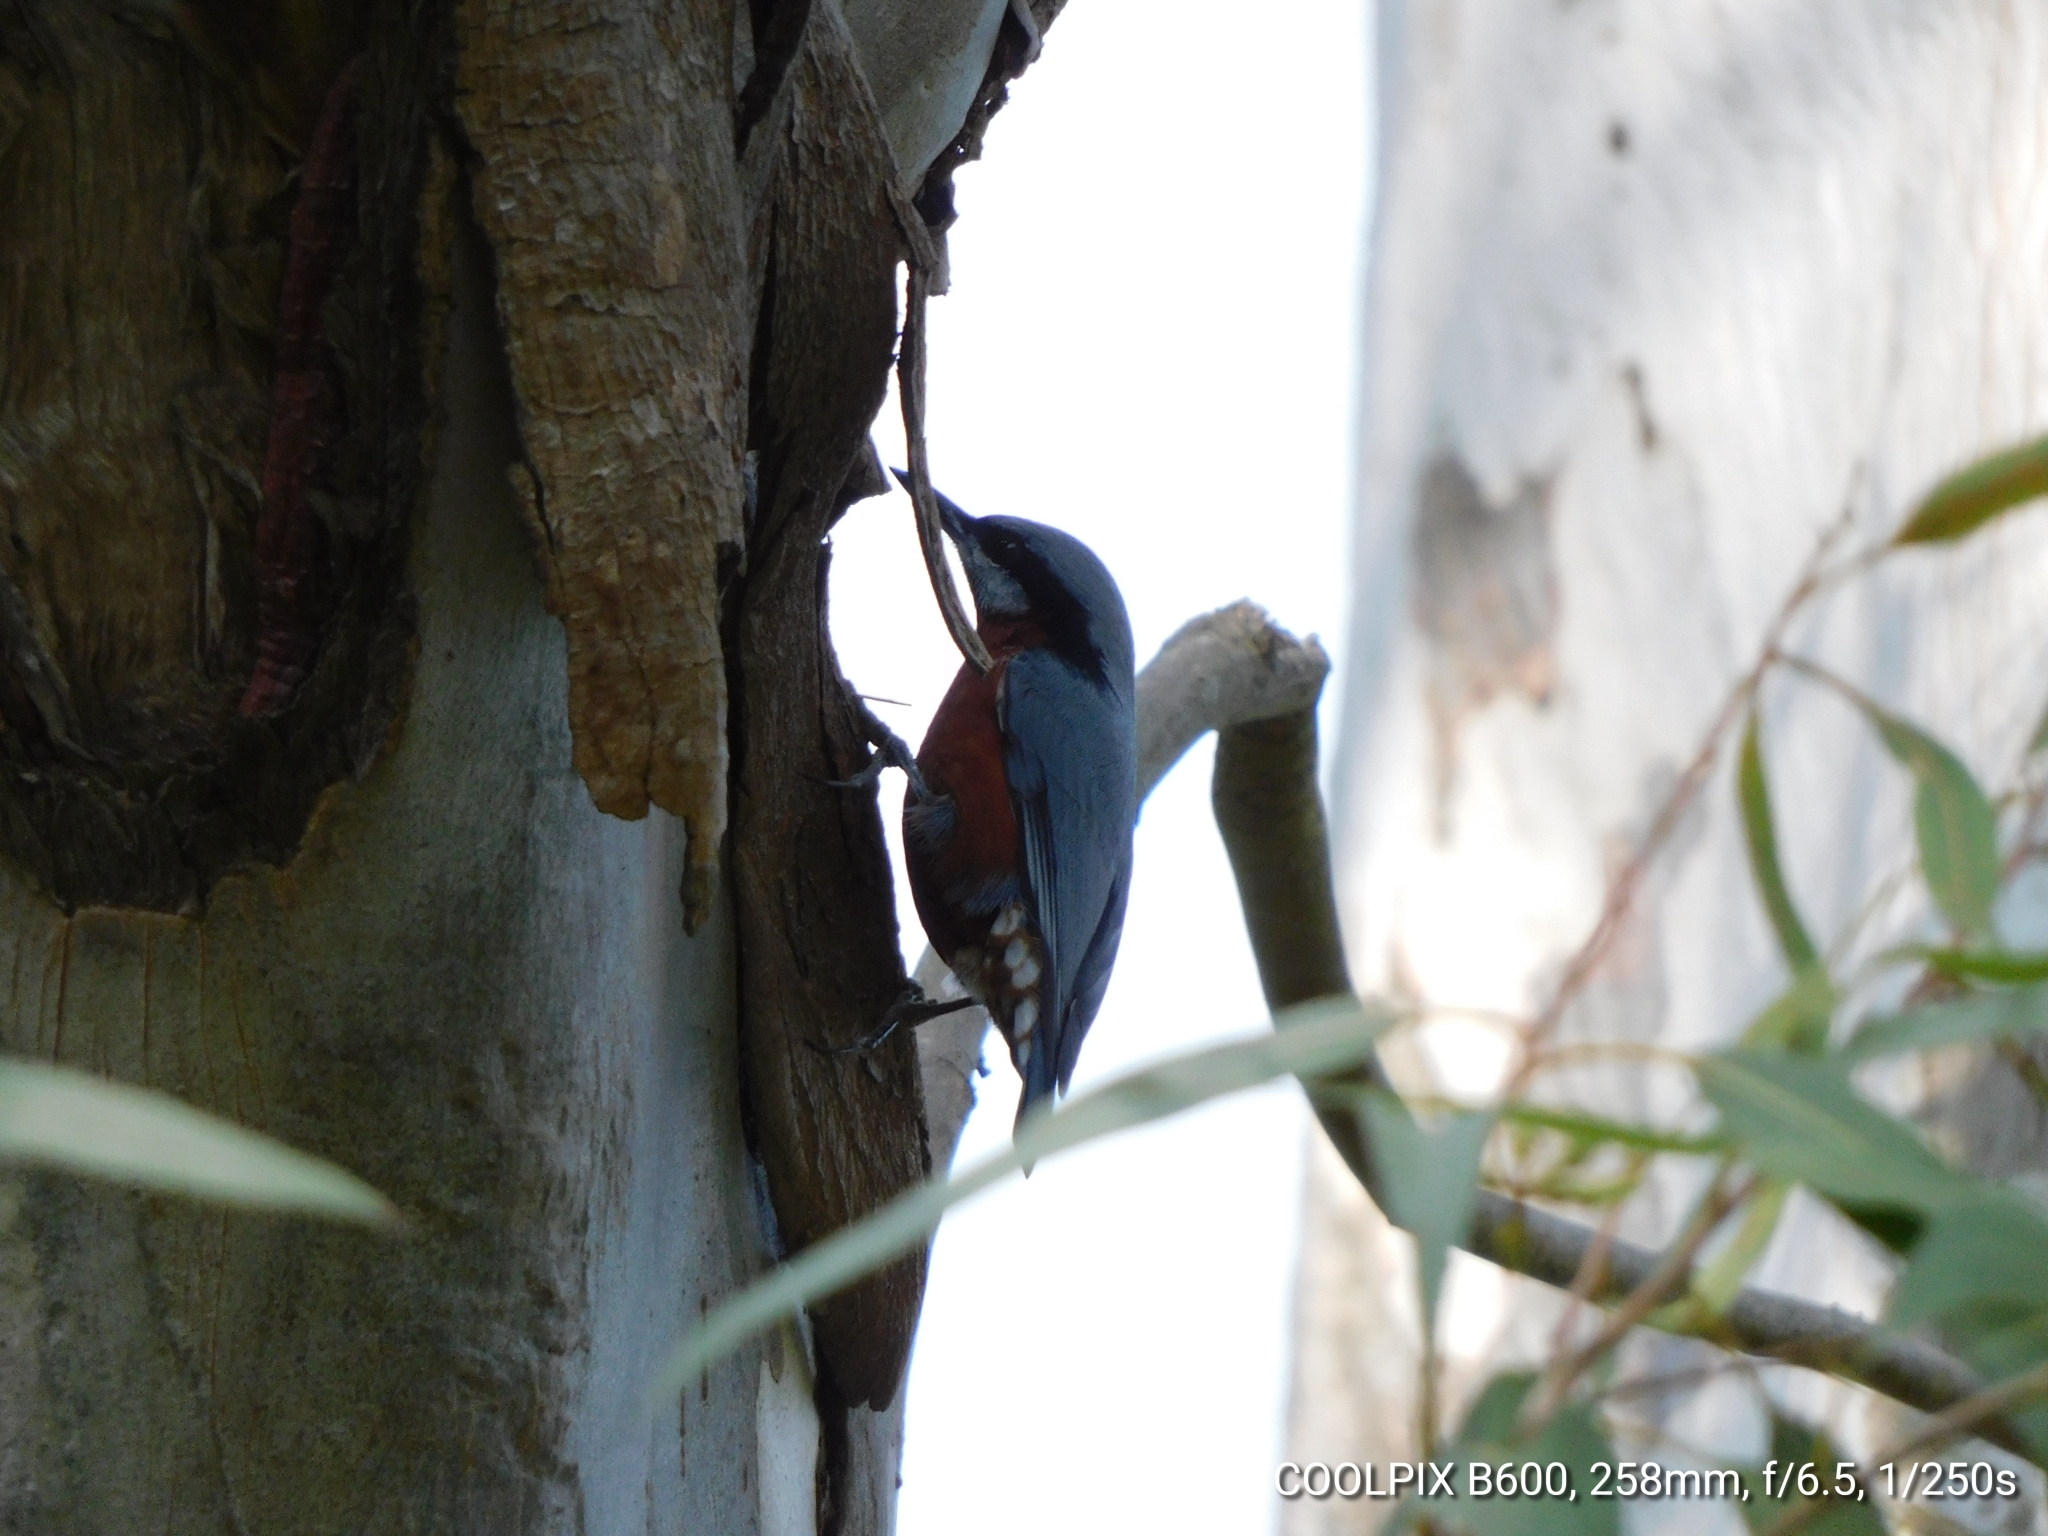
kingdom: Animalia
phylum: Chordata
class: Aves
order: Passeriformes
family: Sittidae
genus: Sitta
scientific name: Sitta cinnamoventris
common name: Chestnut-bellied nuthatch
